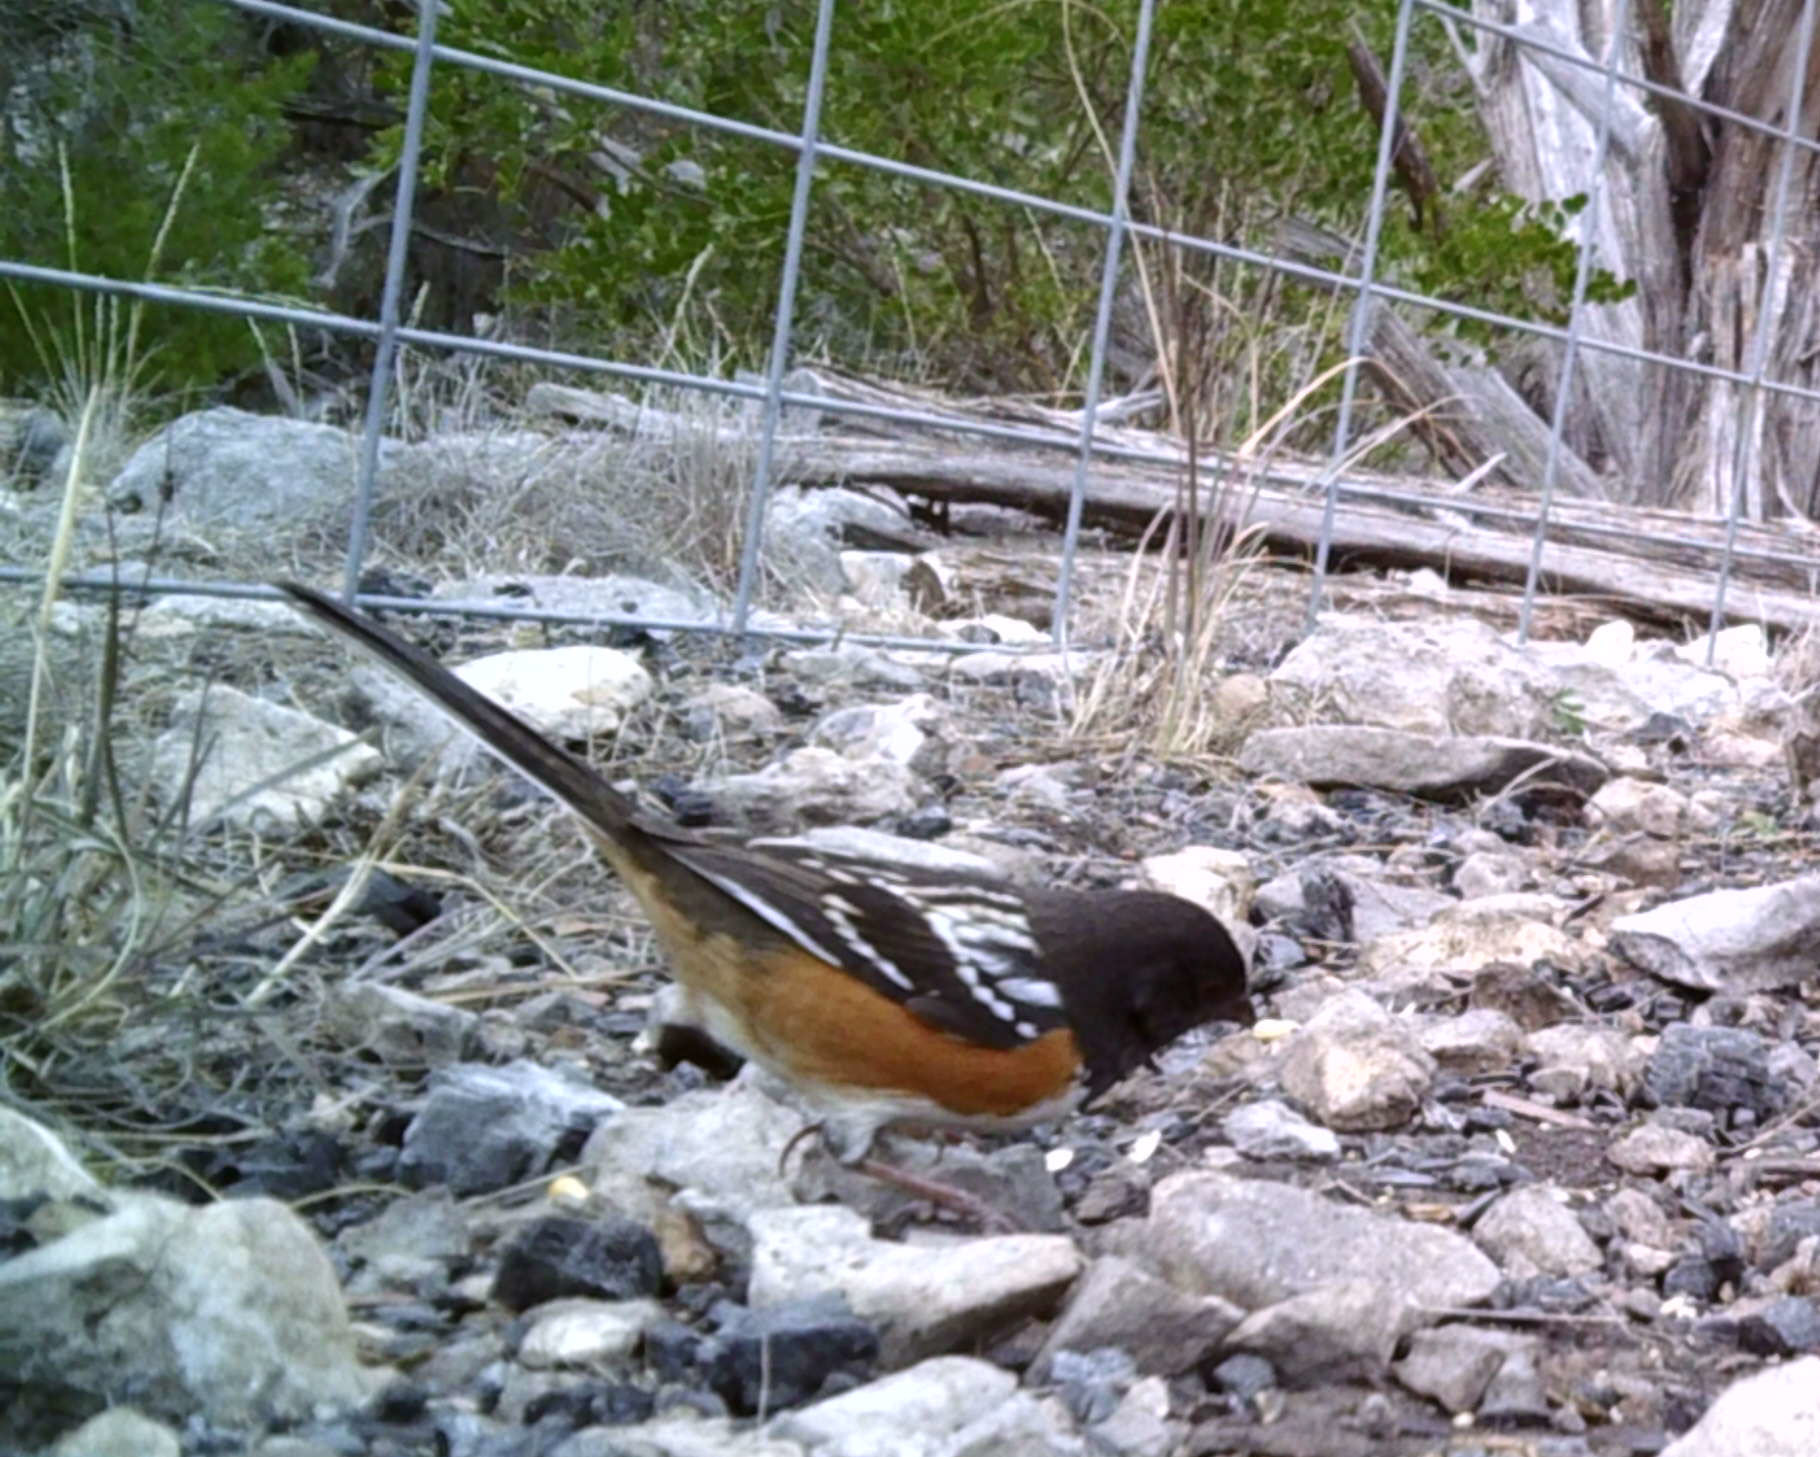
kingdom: Animalia
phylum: Chordata
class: Aves
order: Passeriformes
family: Passerellidae
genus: Pipilo
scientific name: Pipilo maculatus
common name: Spotted towhee
